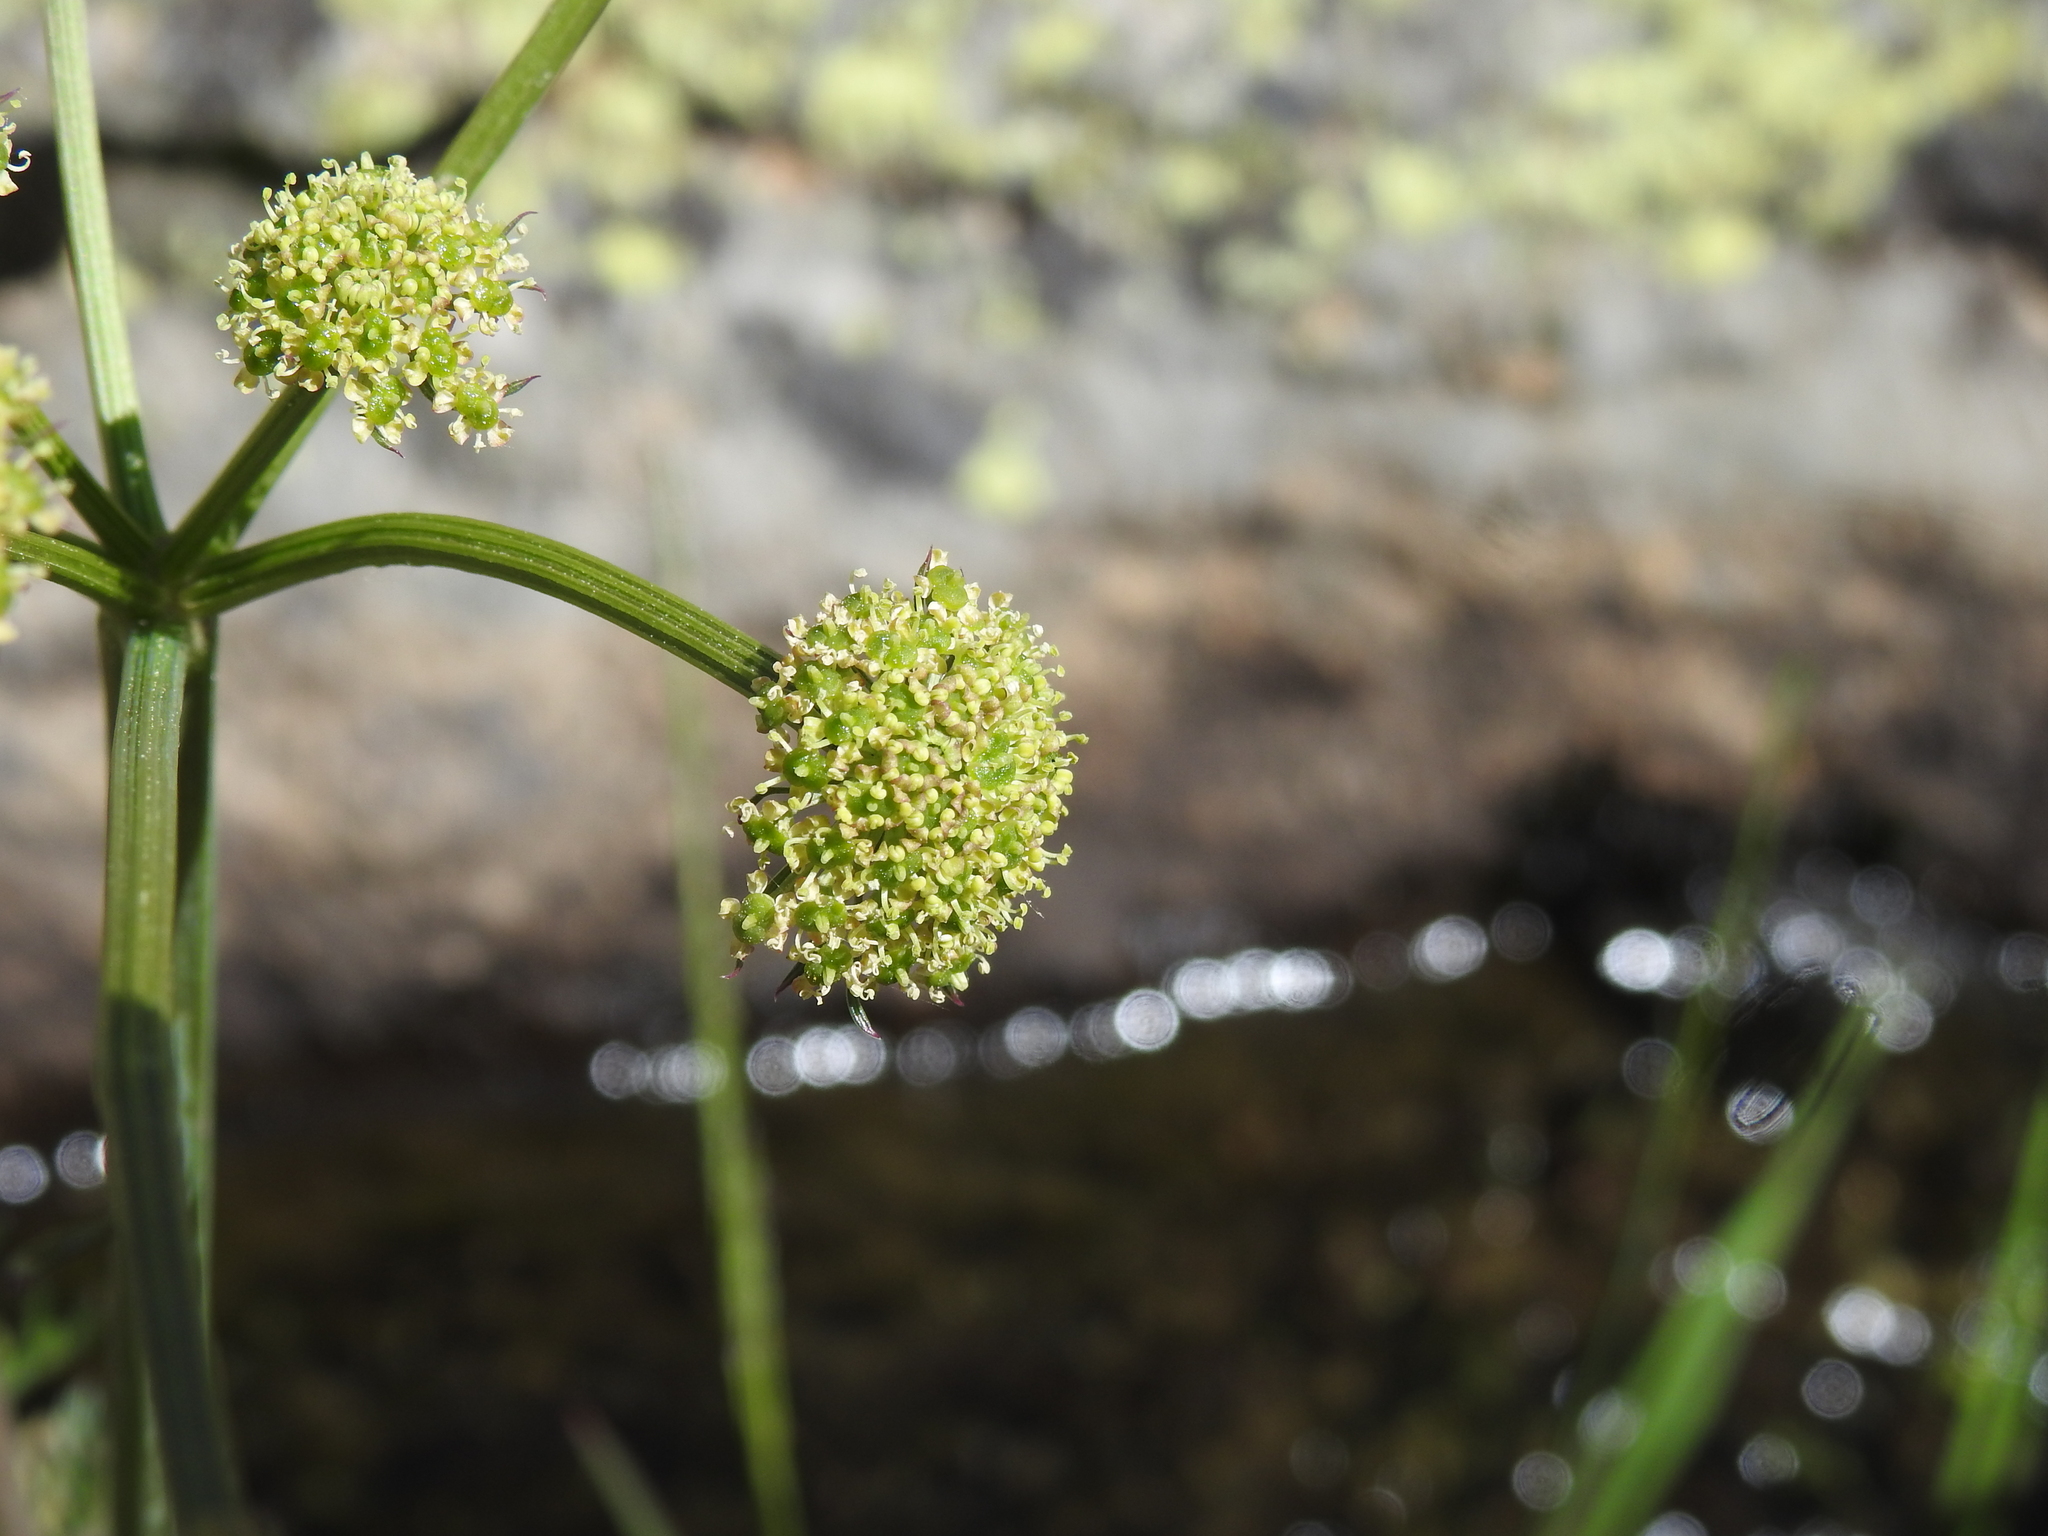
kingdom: Plantae
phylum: Tracheophyta
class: Magnoliopsida
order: Apiales
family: Apiaceae
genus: Epikeros
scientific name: Epikeros pyrenaeus
